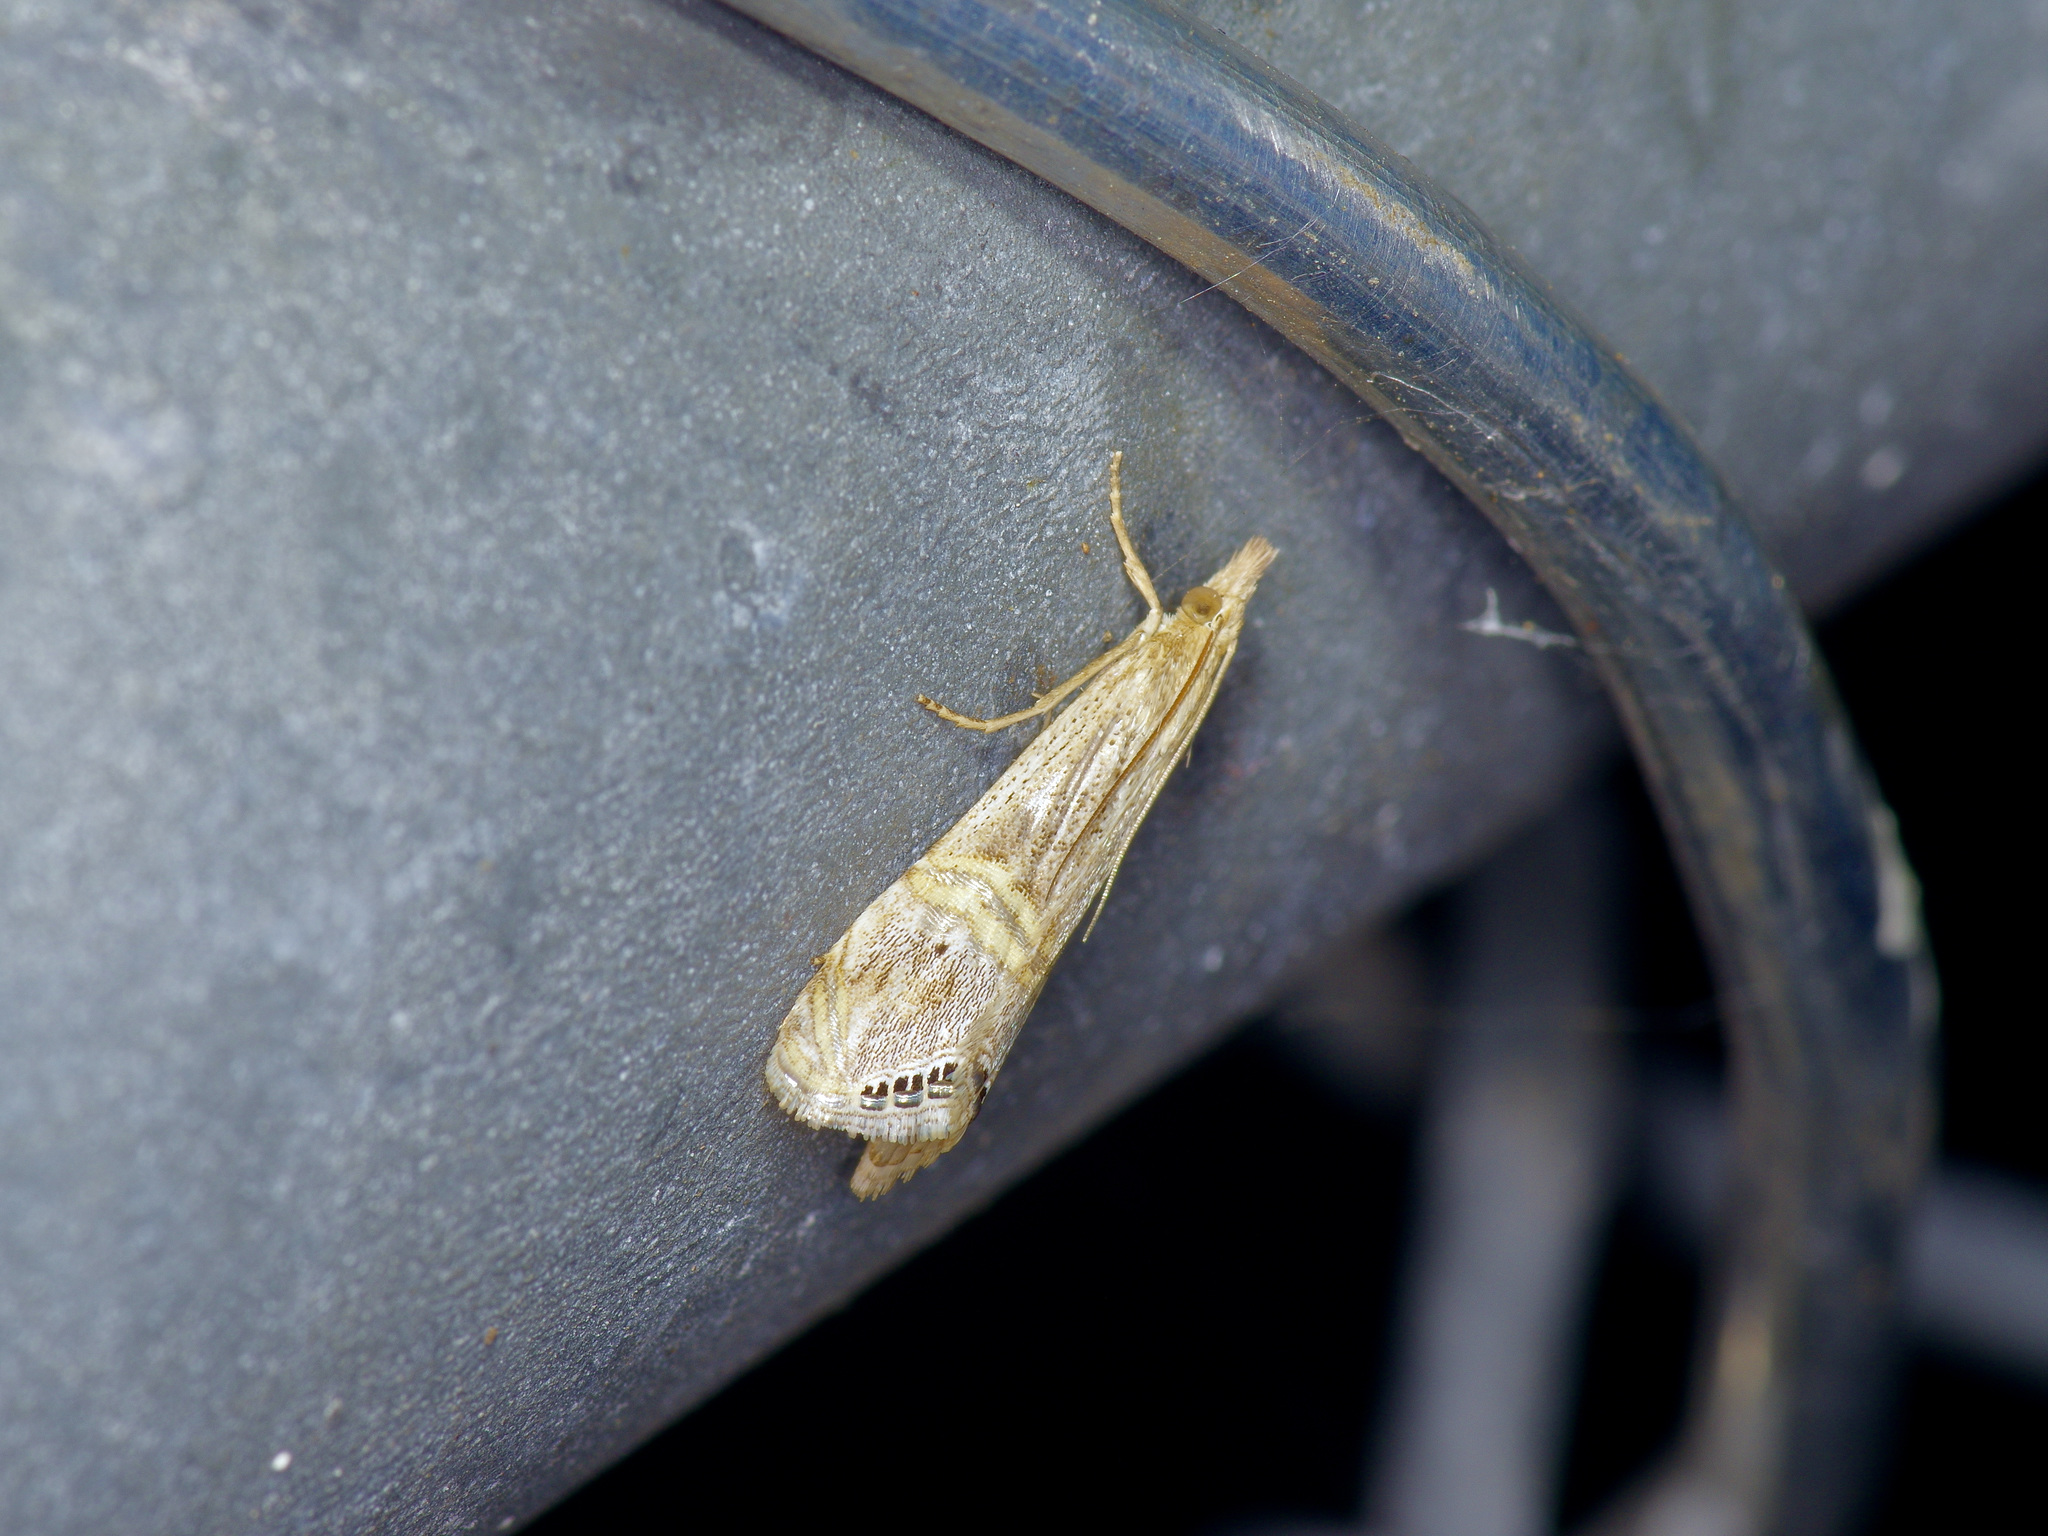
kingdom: Animalia
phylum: Arthropoda
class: Insecta
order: Lepidoptera
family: Crambidae
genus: Euchromius
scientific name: Euchromius ocellea
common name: Necklace veneer moth
